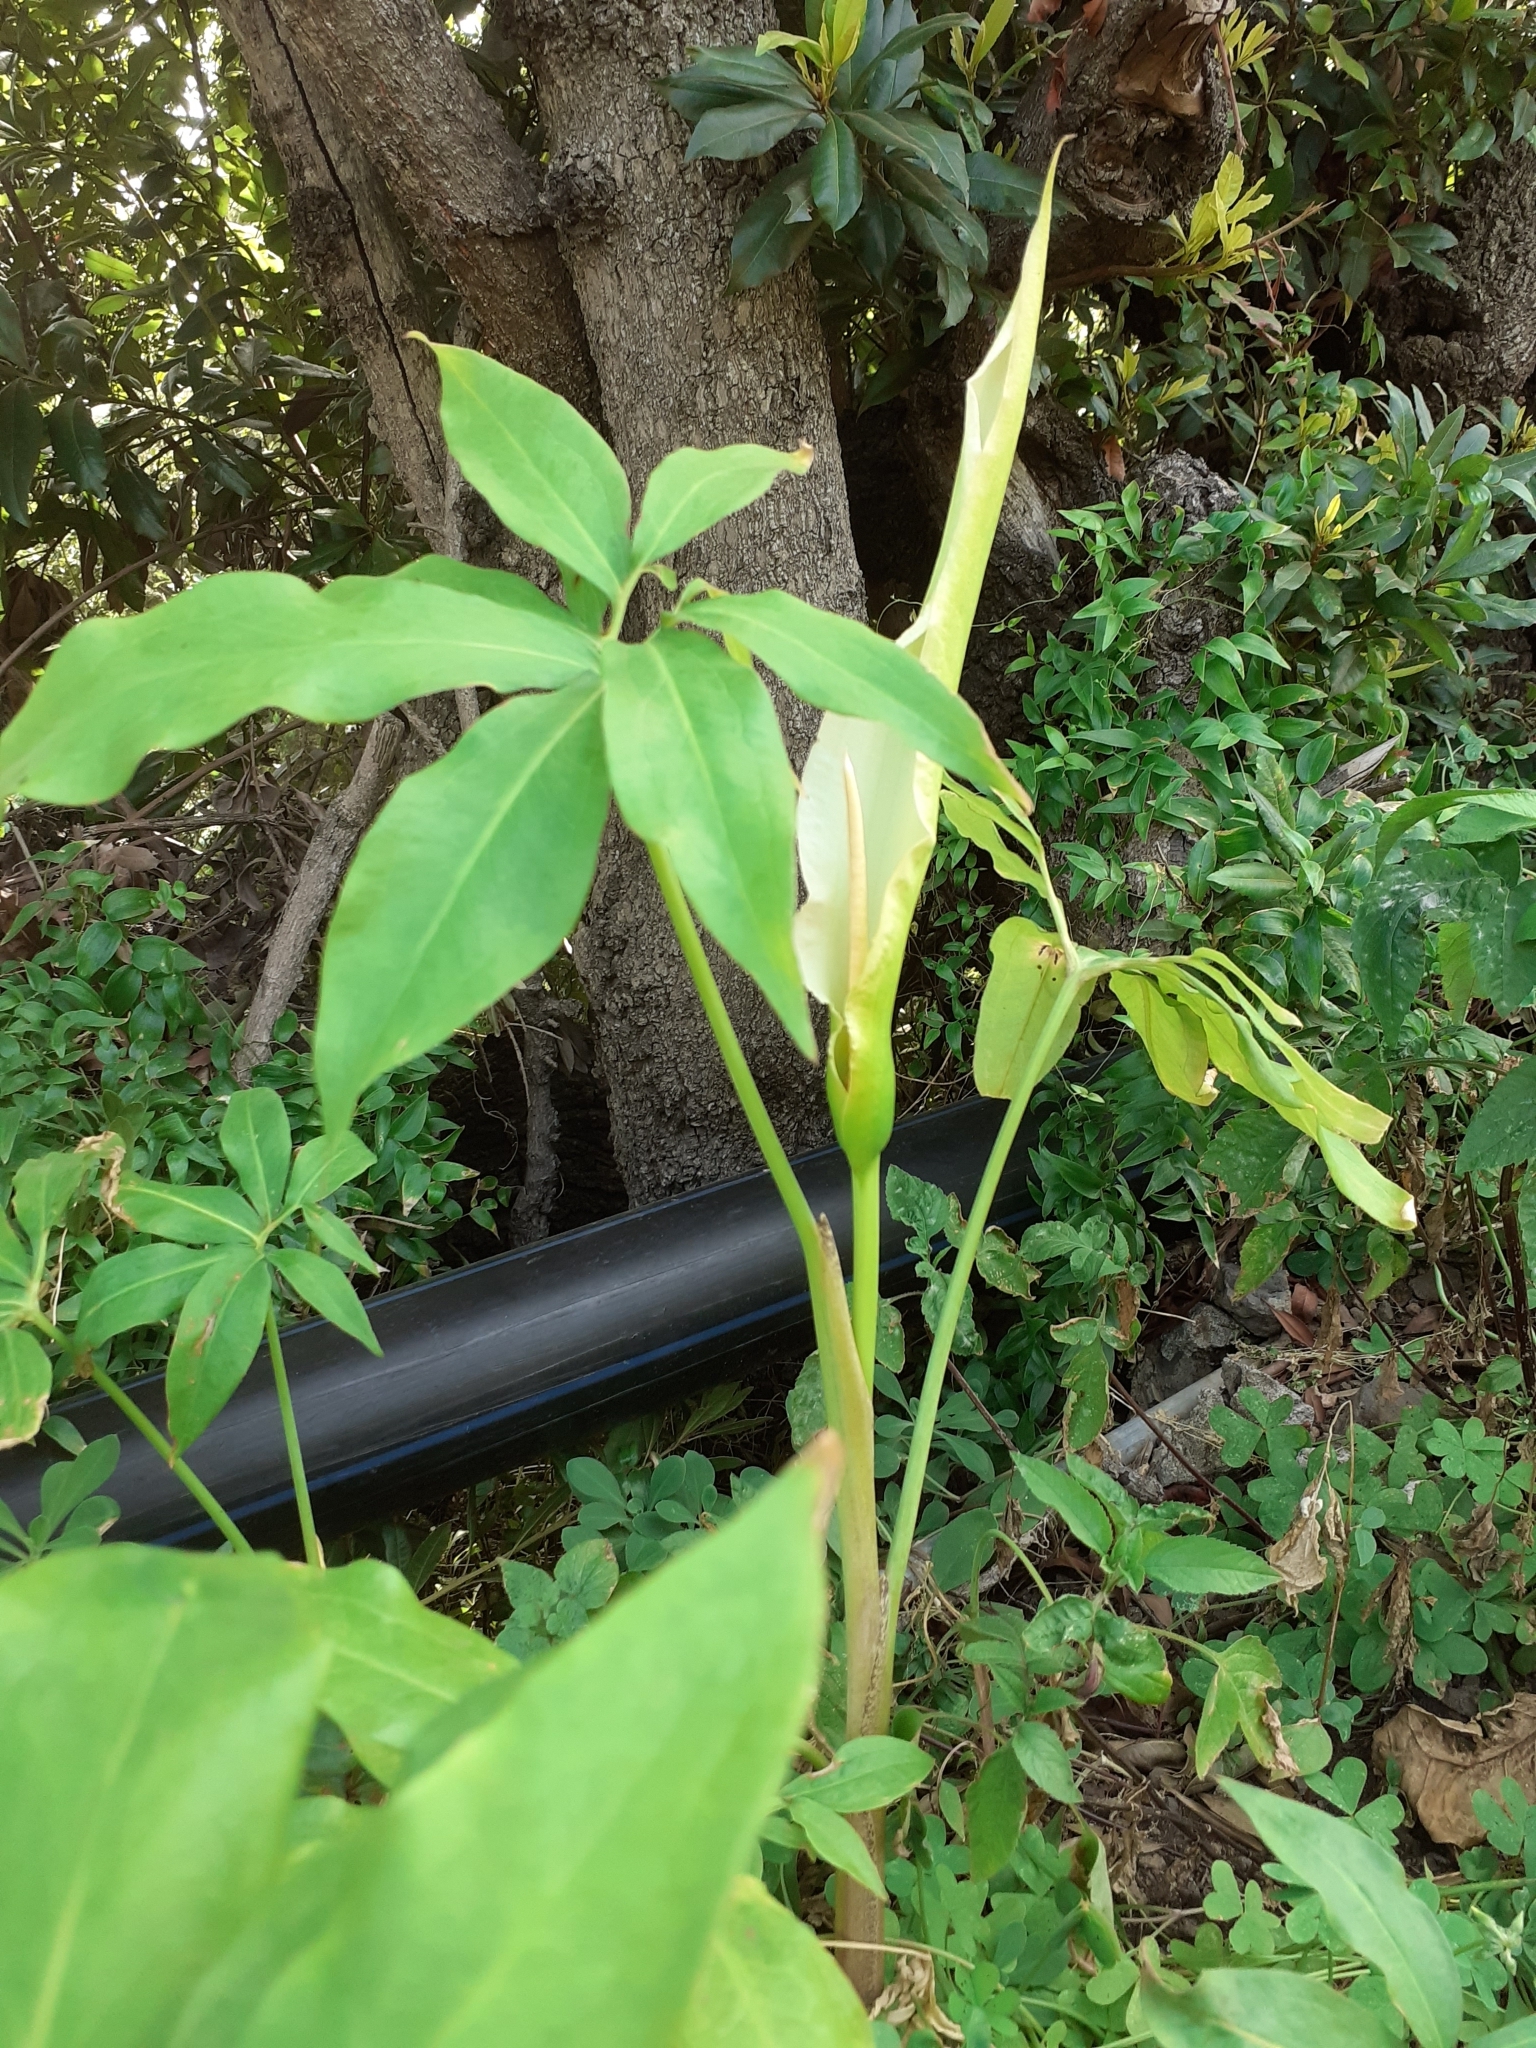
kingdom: Plantae
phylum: Tracheophyta
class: Liliopsida
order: Alismatales
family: Araceae
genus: Dracunculus
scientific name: Dracunculus canariensis
